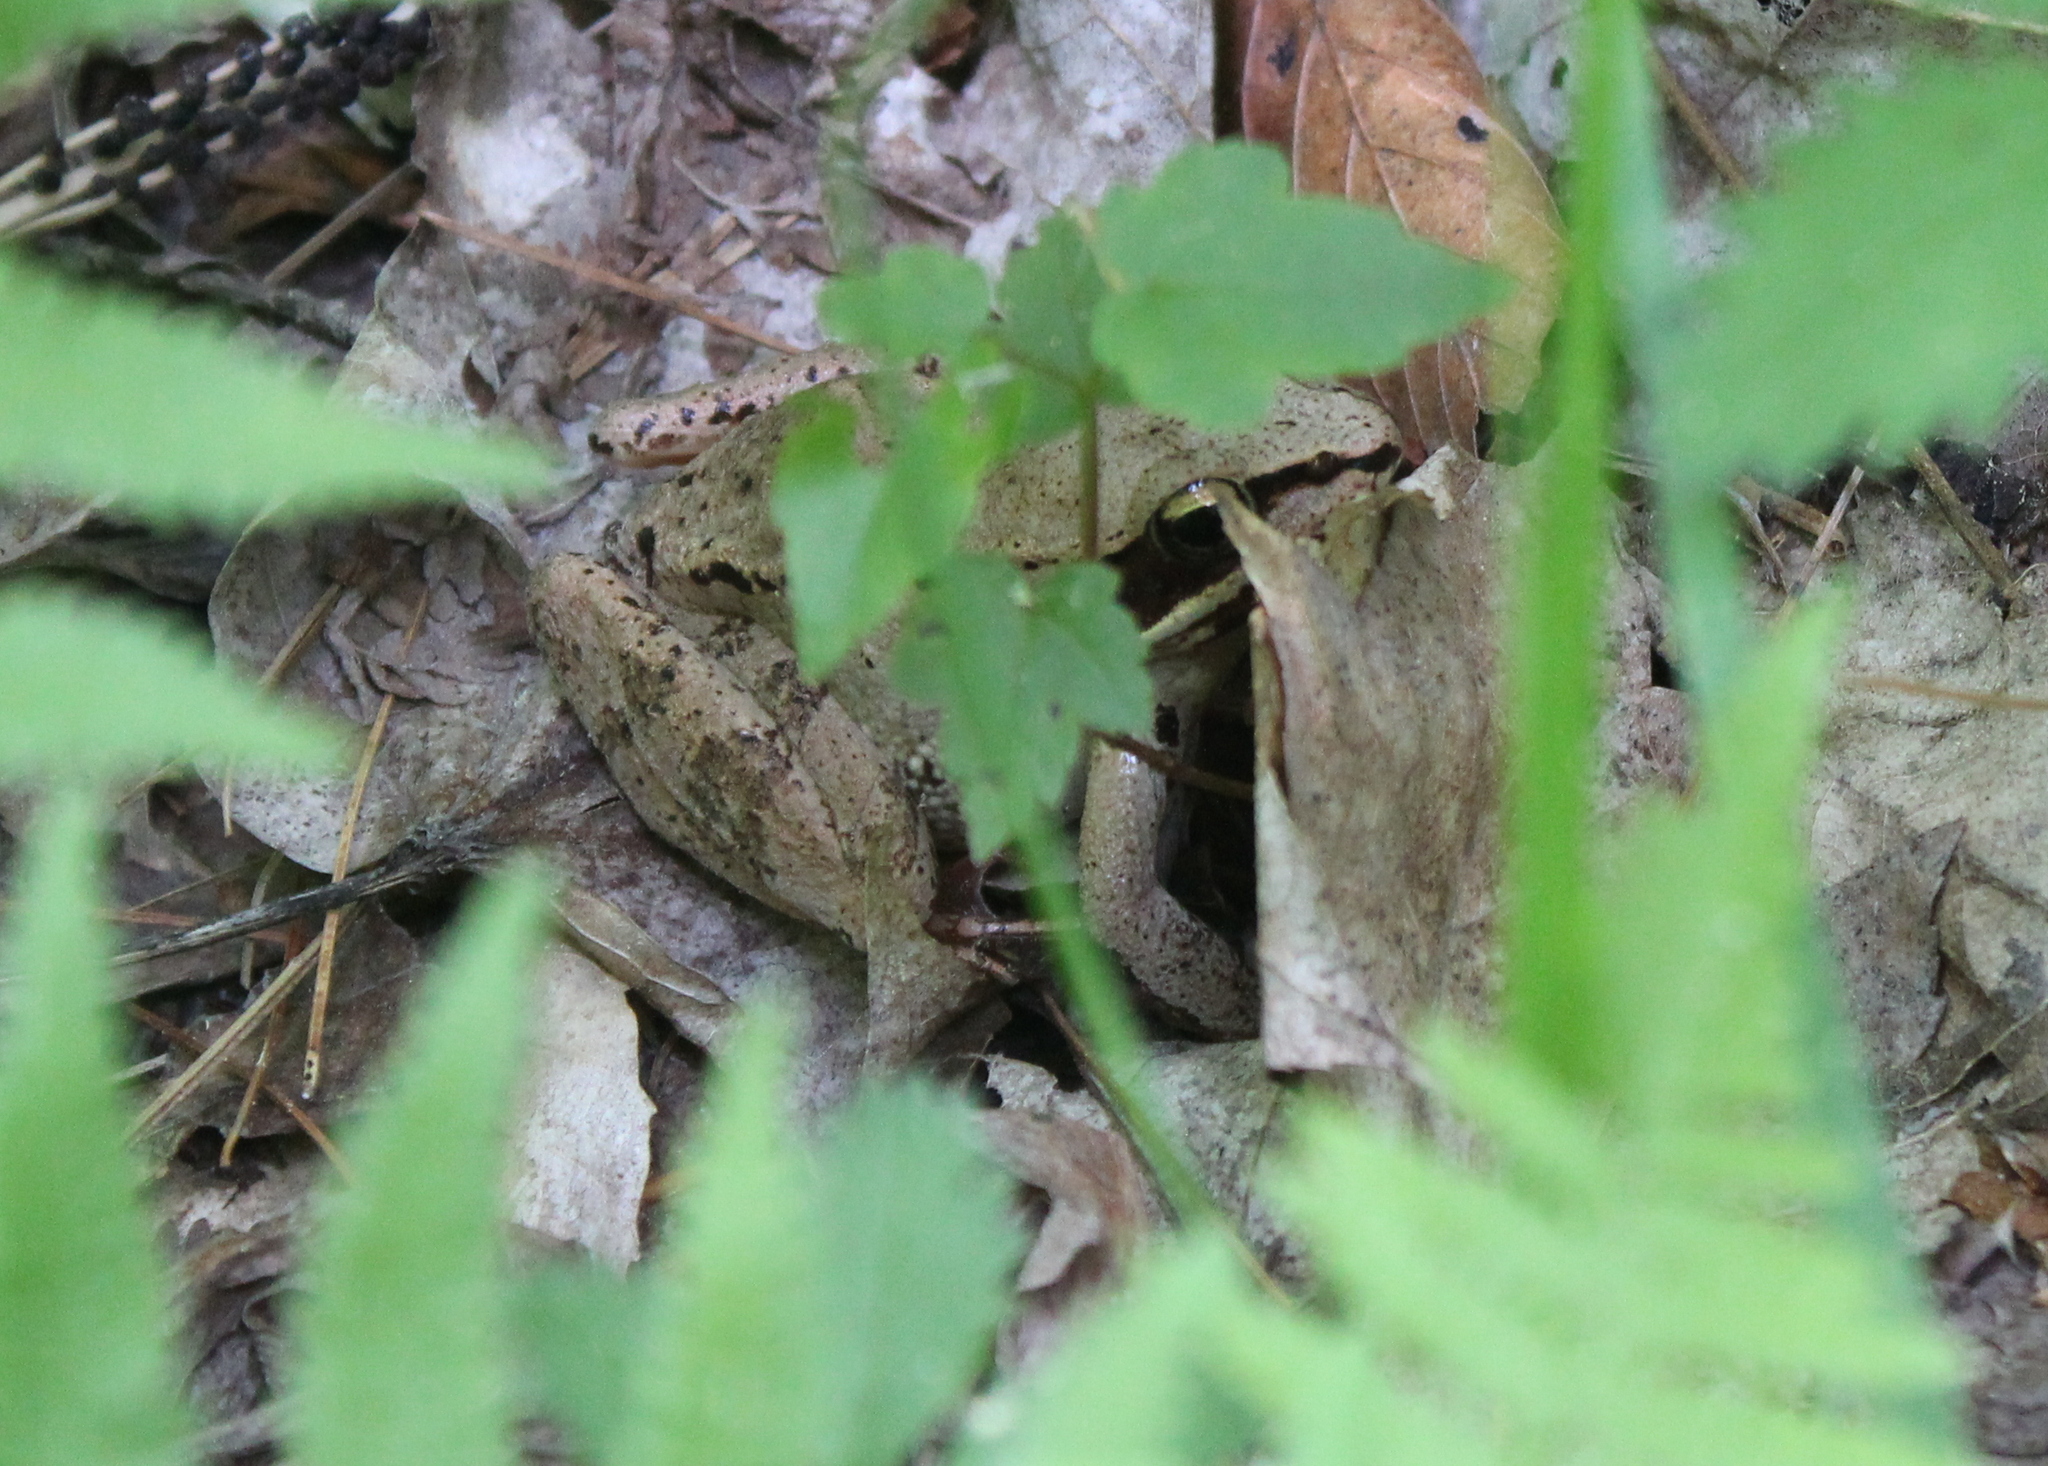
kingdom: Animalia
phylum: Chordata
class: Amphibia
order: Anura
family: Ranidae
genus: Lithobates
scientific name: Lithobates sylvaticus
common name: Wood frog
